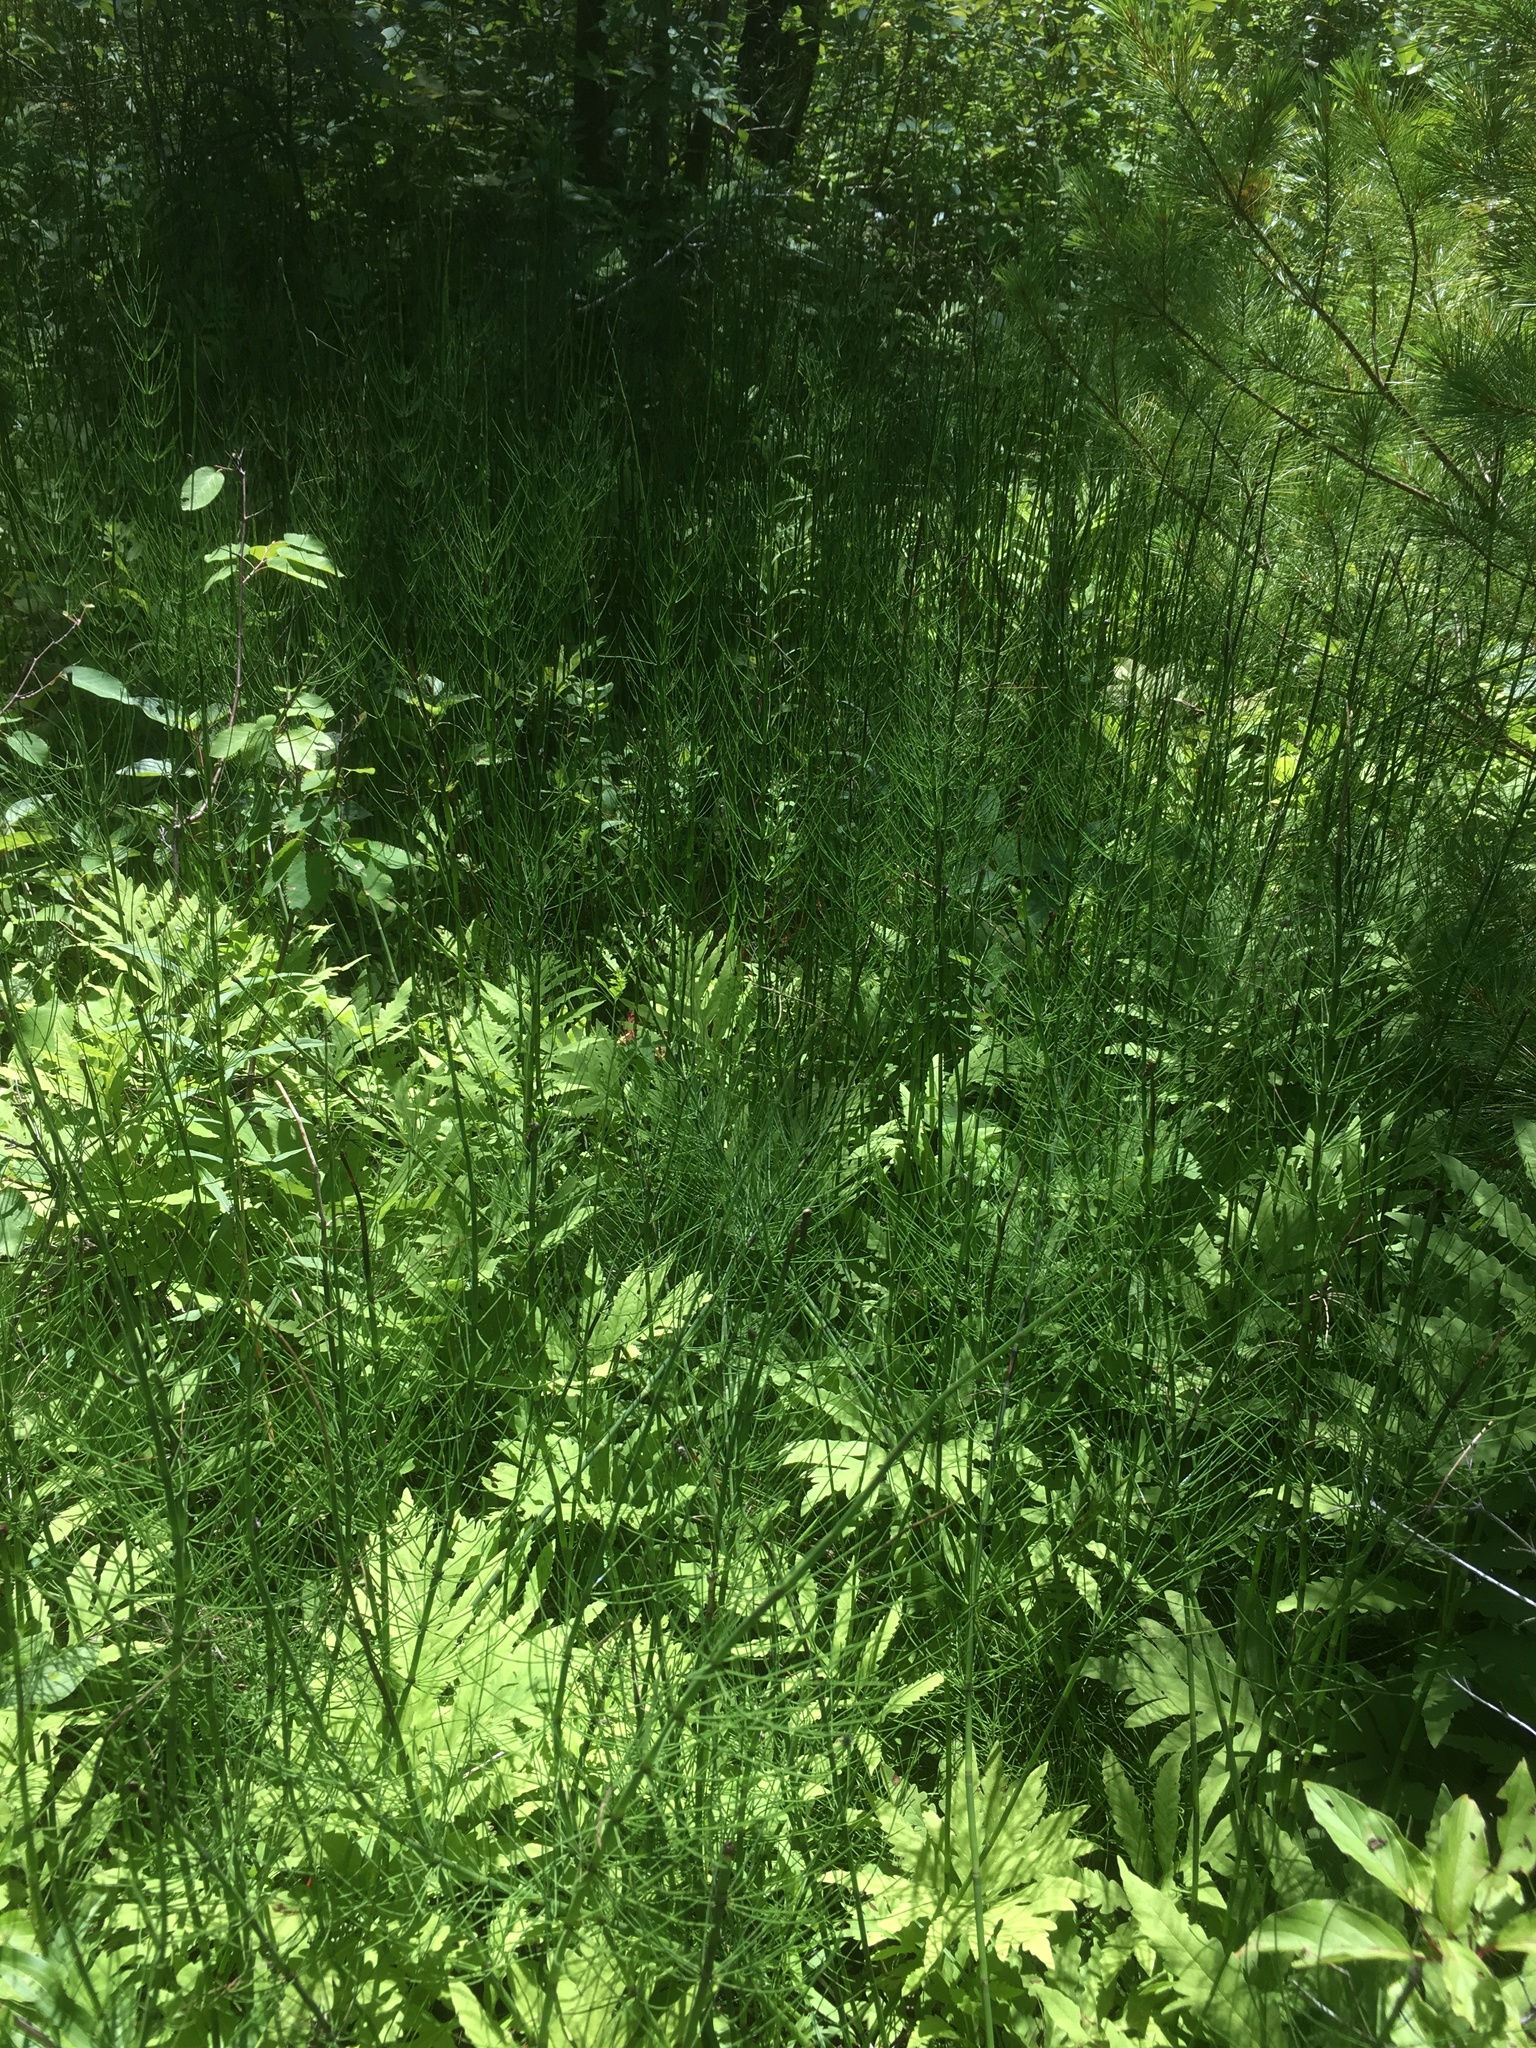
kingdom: Plantae
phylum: Tracheophyta
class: Polypodiopsida
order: Equisetales
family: Equisetaceae
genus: Equisetum
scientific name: Equisetum fluviatile
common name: Water horsetail
